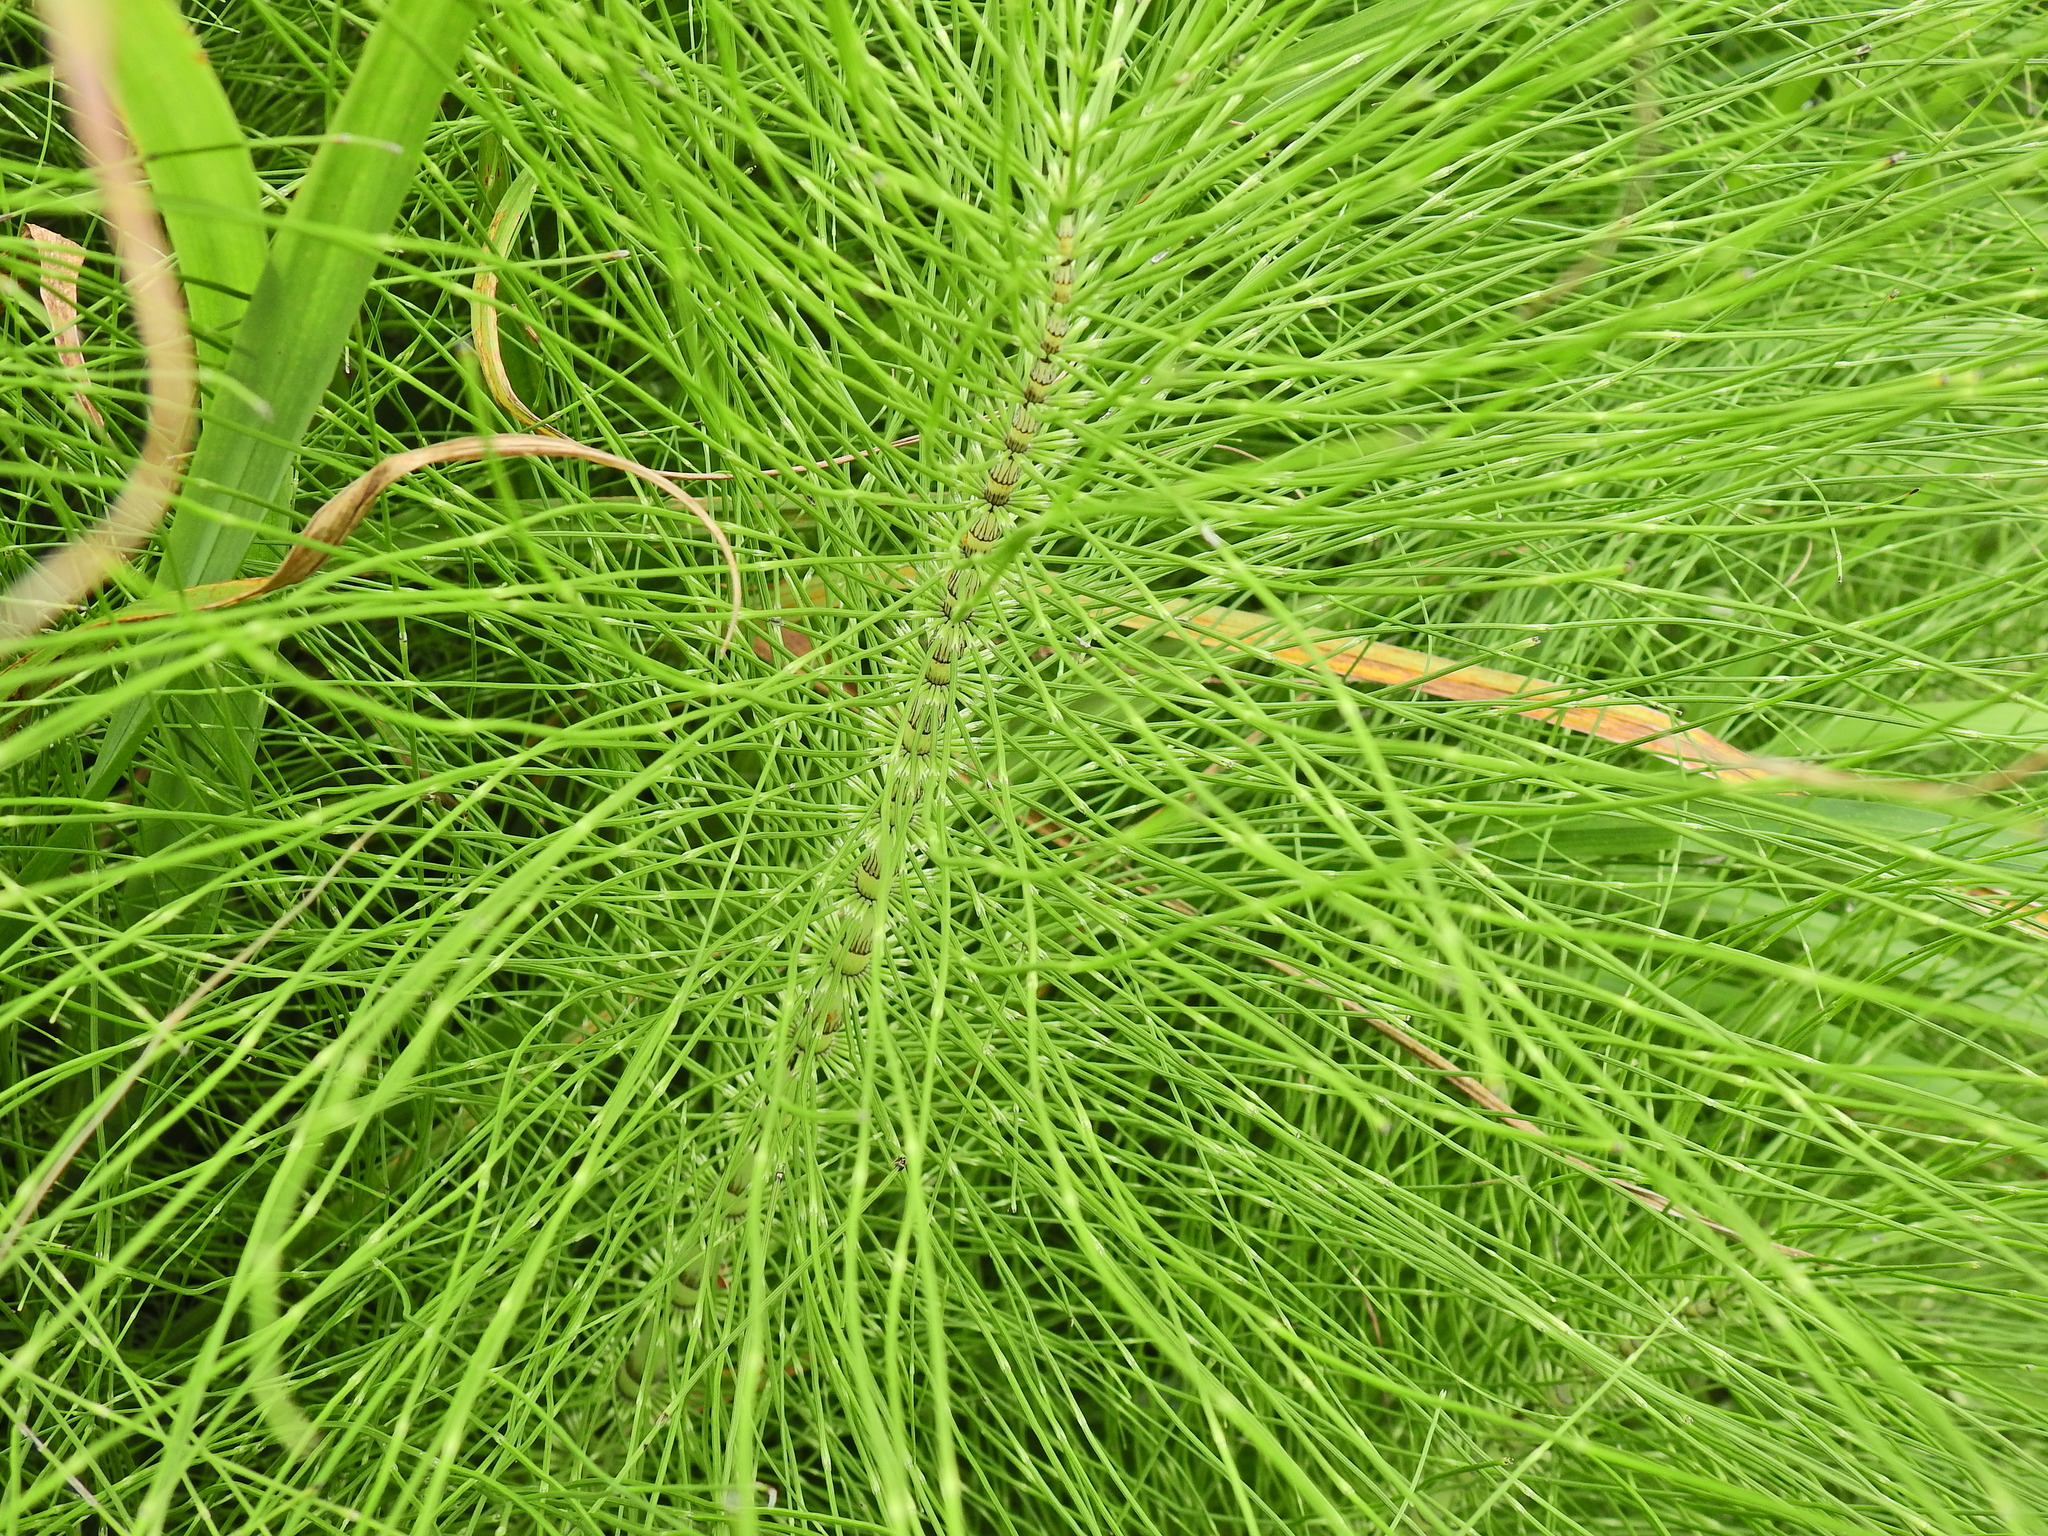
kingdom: Plantae
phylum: Tracheophyta
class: Polypodiopsida
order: Equisetales
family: Equisetaceae
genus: Equisetum
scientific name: Equisetum telmateia
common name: Great horsetail
